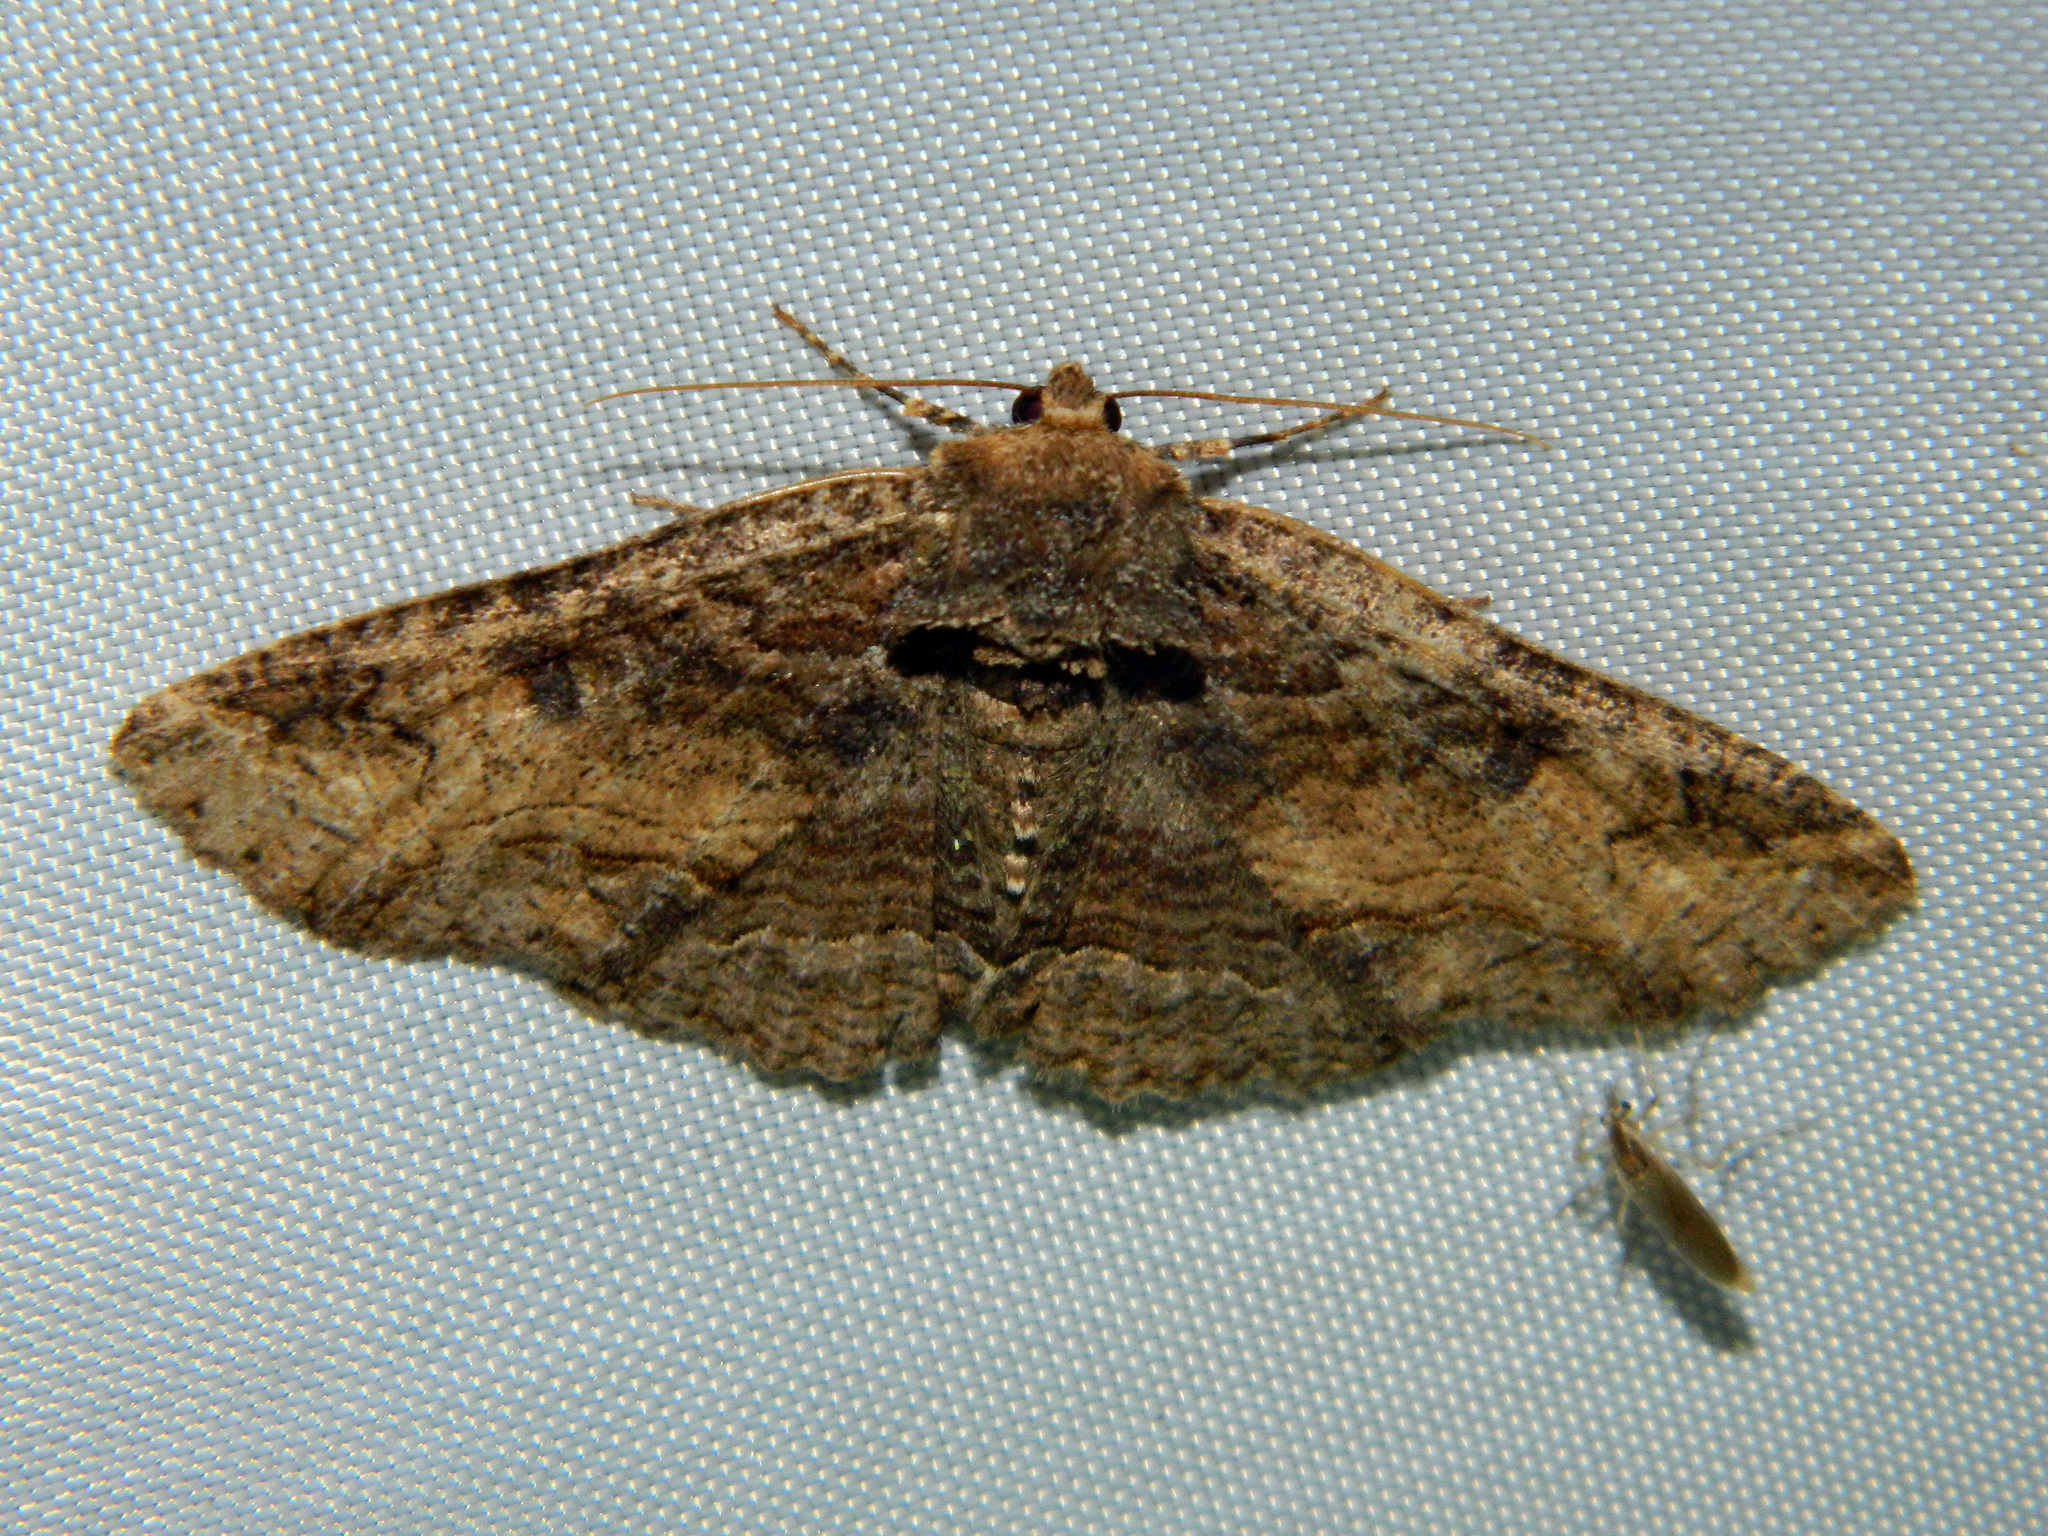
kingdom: Animalia
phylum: Arthropoda
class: Insecta
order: Lepidoptera
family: Erebidae
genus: Zale
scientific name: Zale minerea
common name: Colorful zale moth
